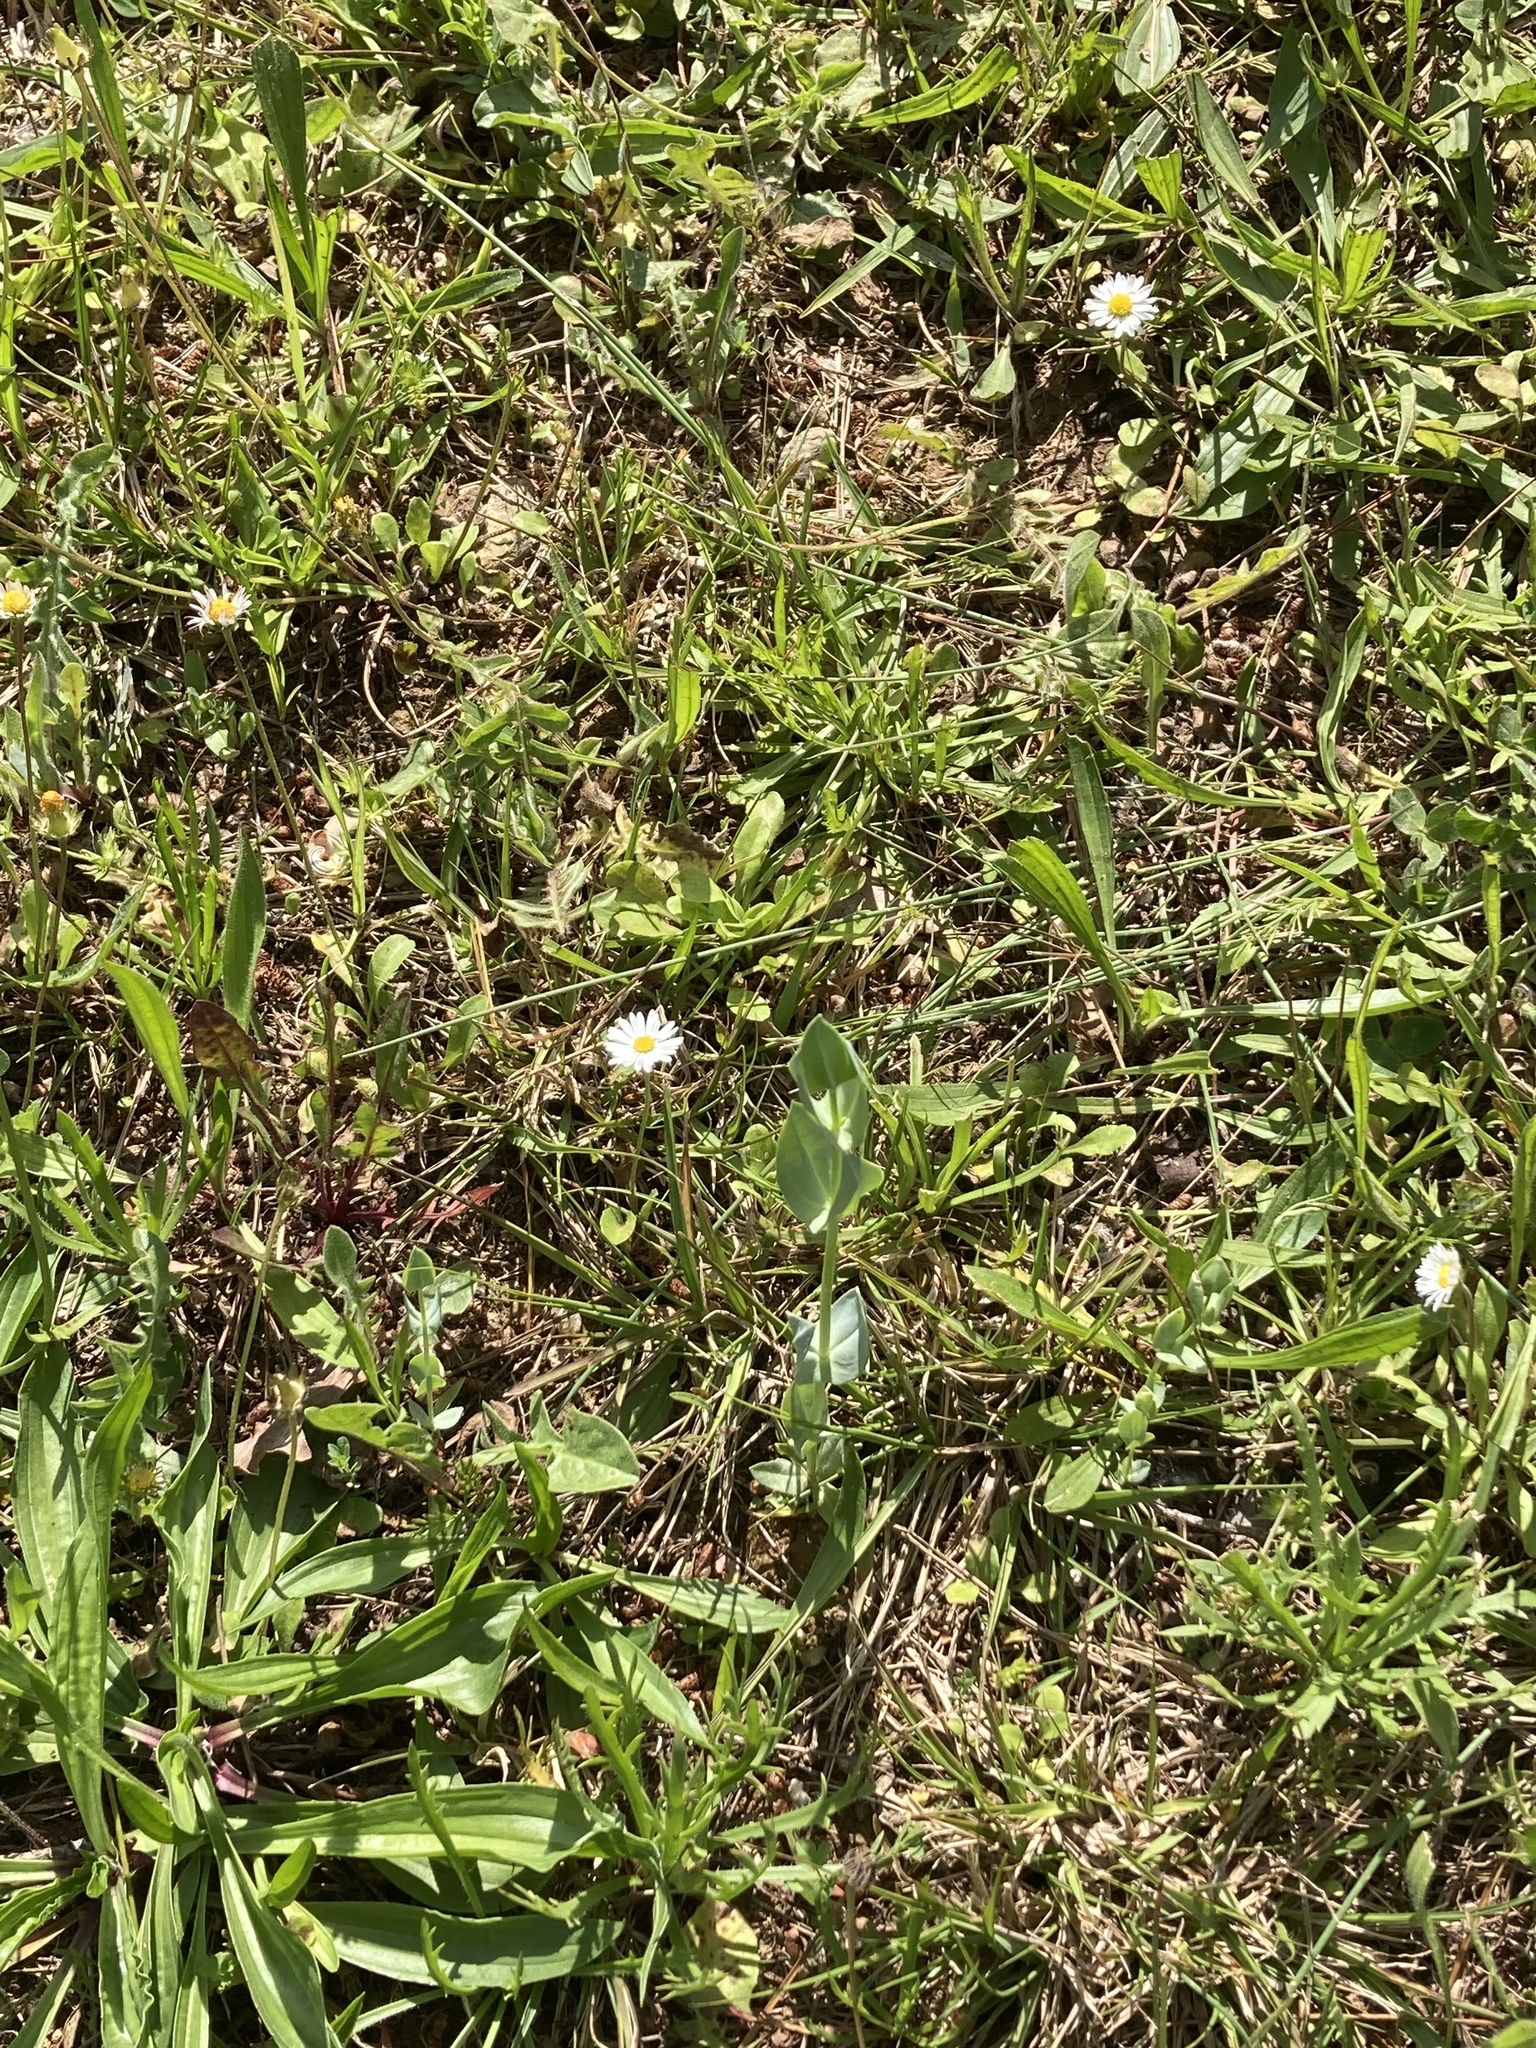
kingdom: Plantae
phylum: Tracheophyta
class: Magnoliopsida
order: Gentianales
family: Gentianaceae
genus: Blackstonia
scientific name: Blackstonia perfoliata
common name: Yellow-wort
